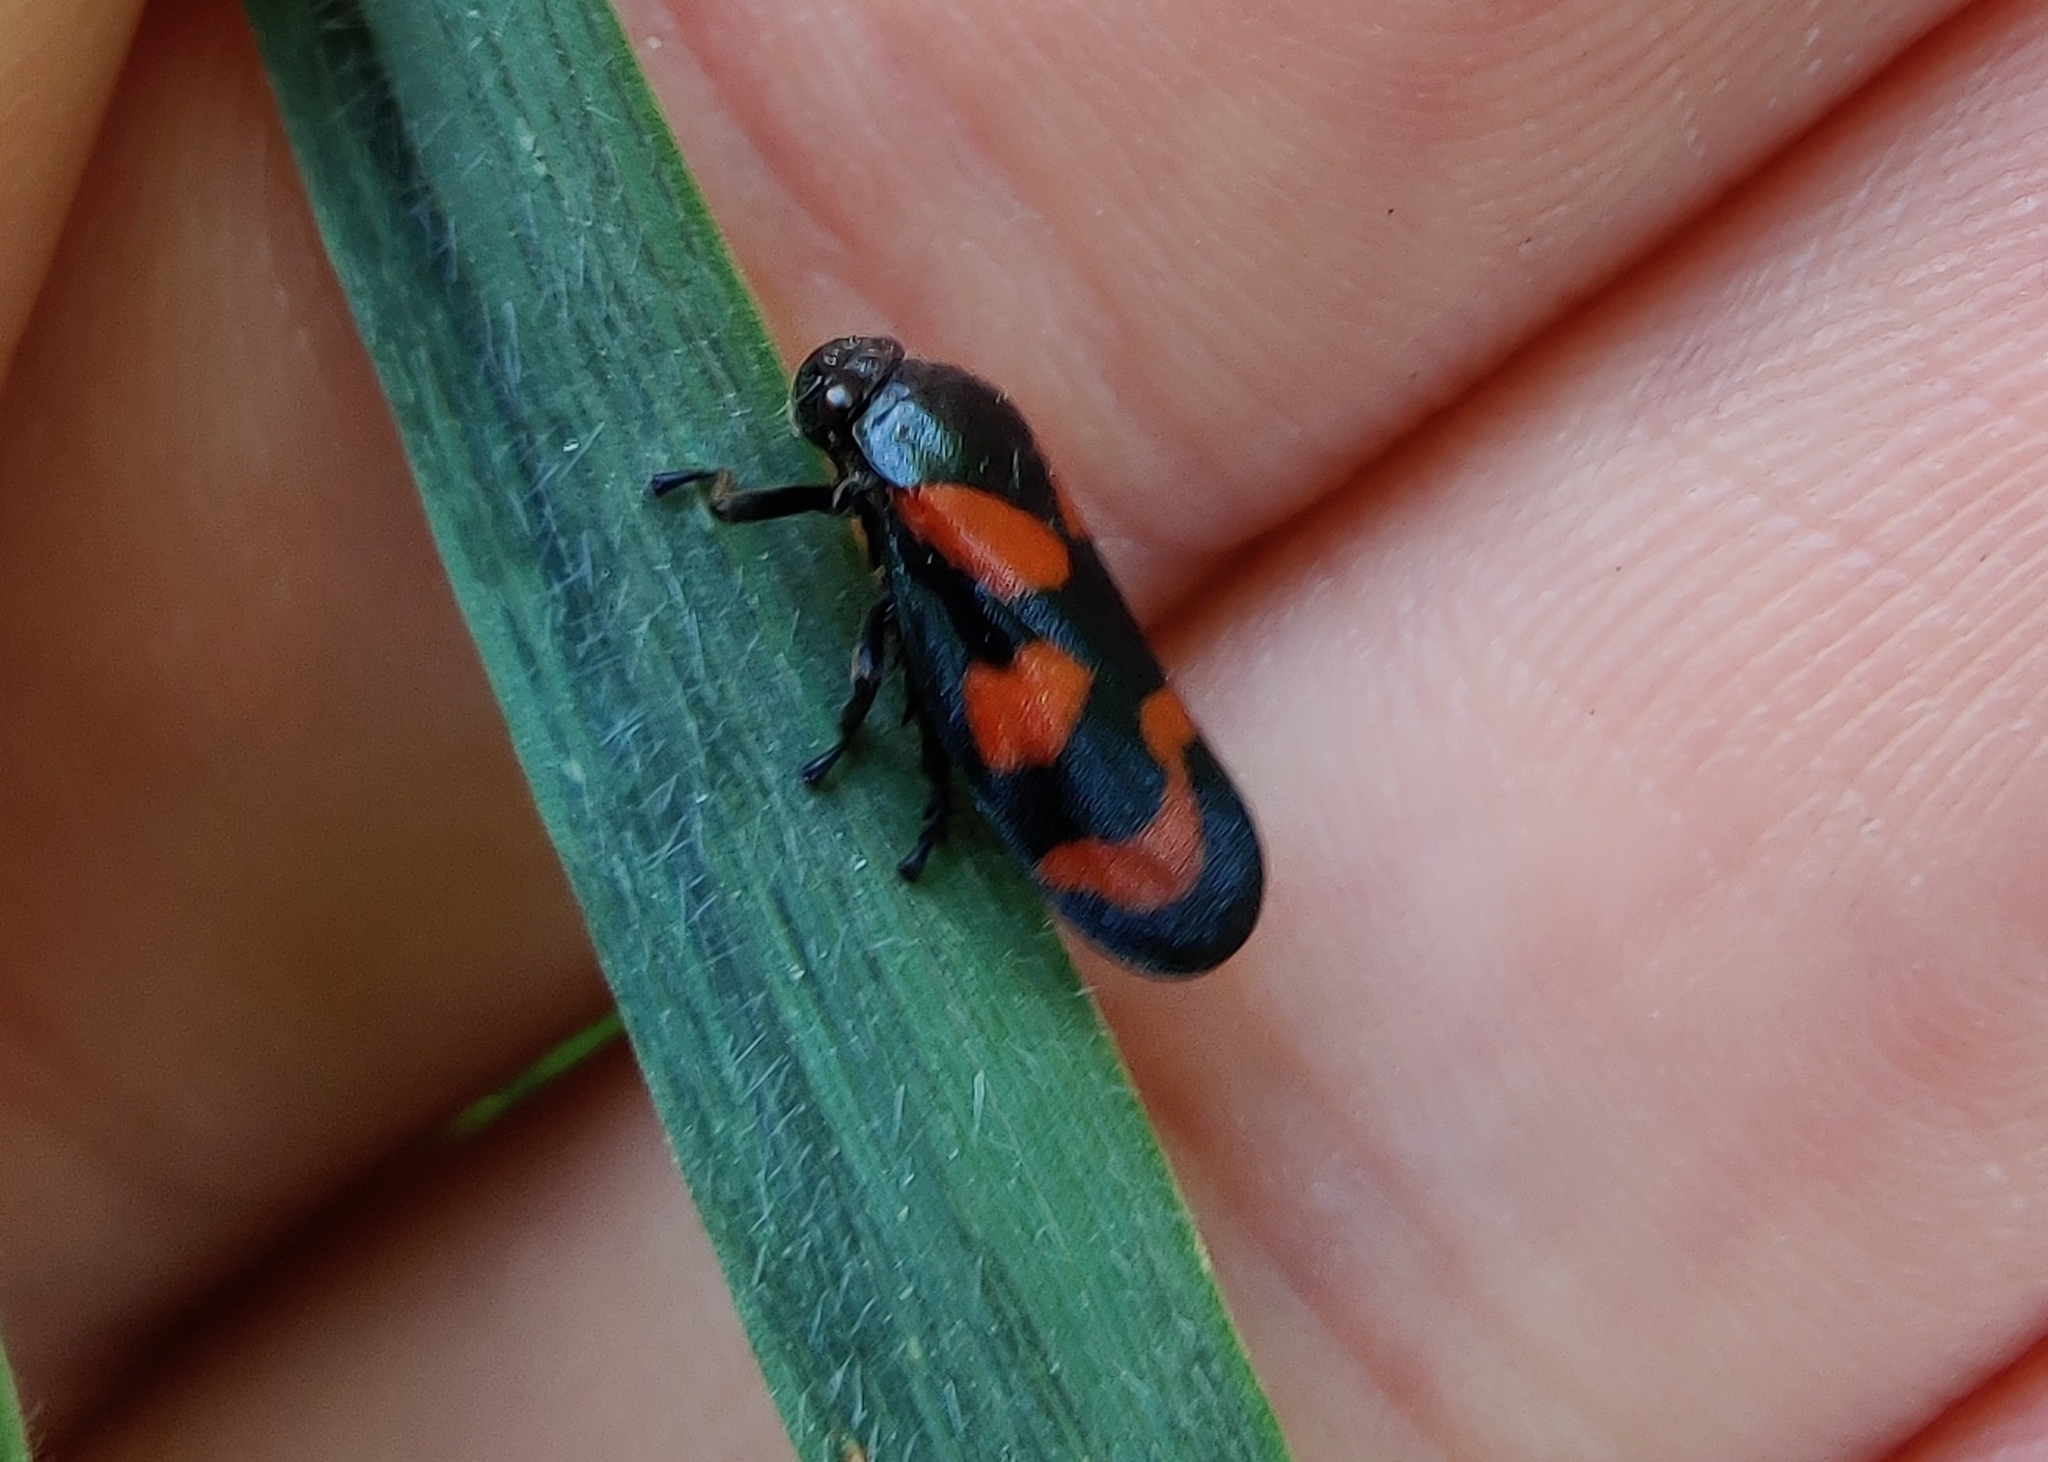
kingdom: Animalia
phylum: Arthropoda
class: Insecta
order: Hemiptera
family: Cercopidae
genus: Cercopis
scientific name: Cercopis vulnerata
